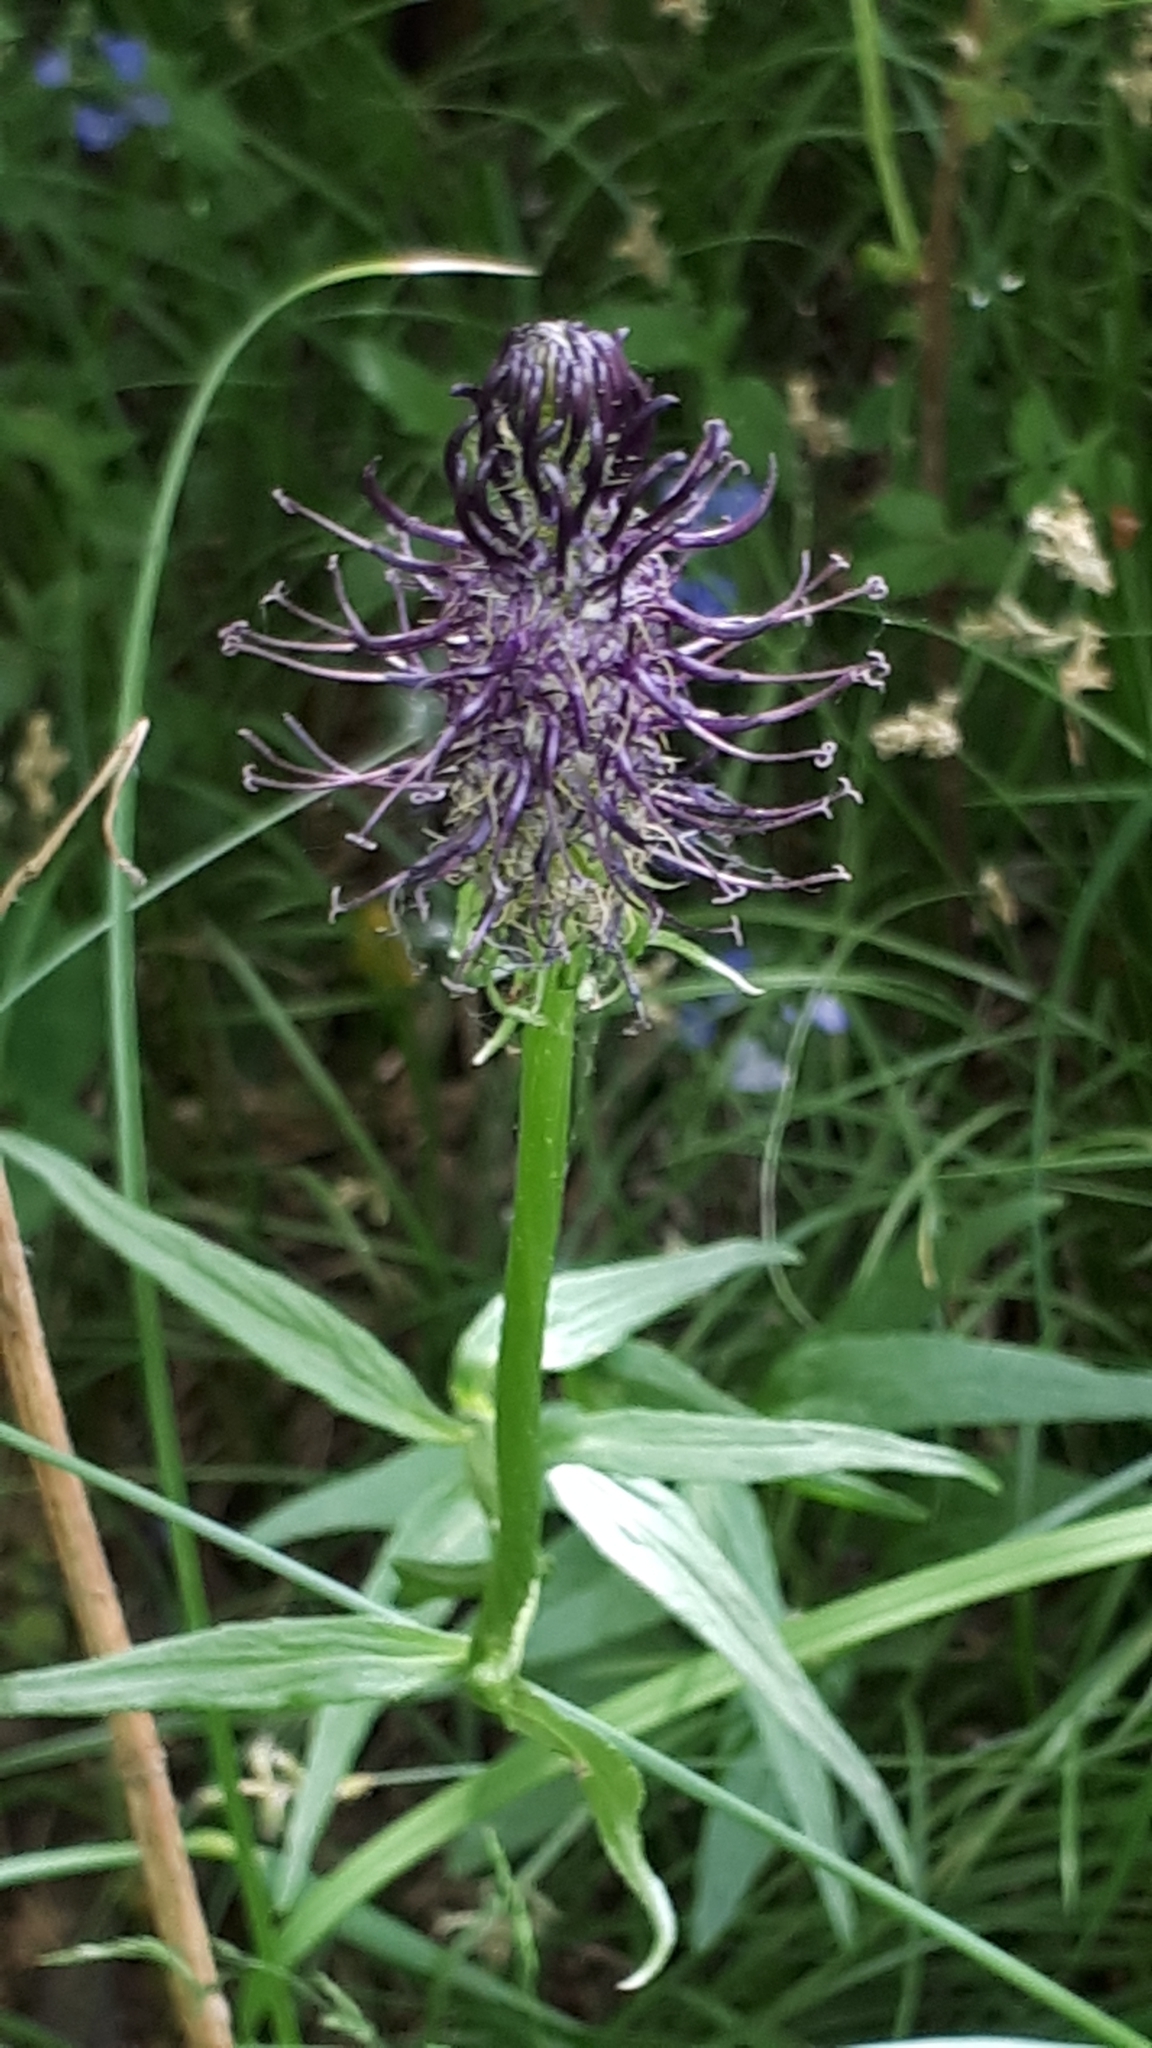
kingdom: Plantae
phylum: Tracheophyta
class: Magnoliopsida
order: Asterales
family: Campanulaceae
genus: Phyteuma
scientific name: Phyteuma nigrum
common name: Black rampion
